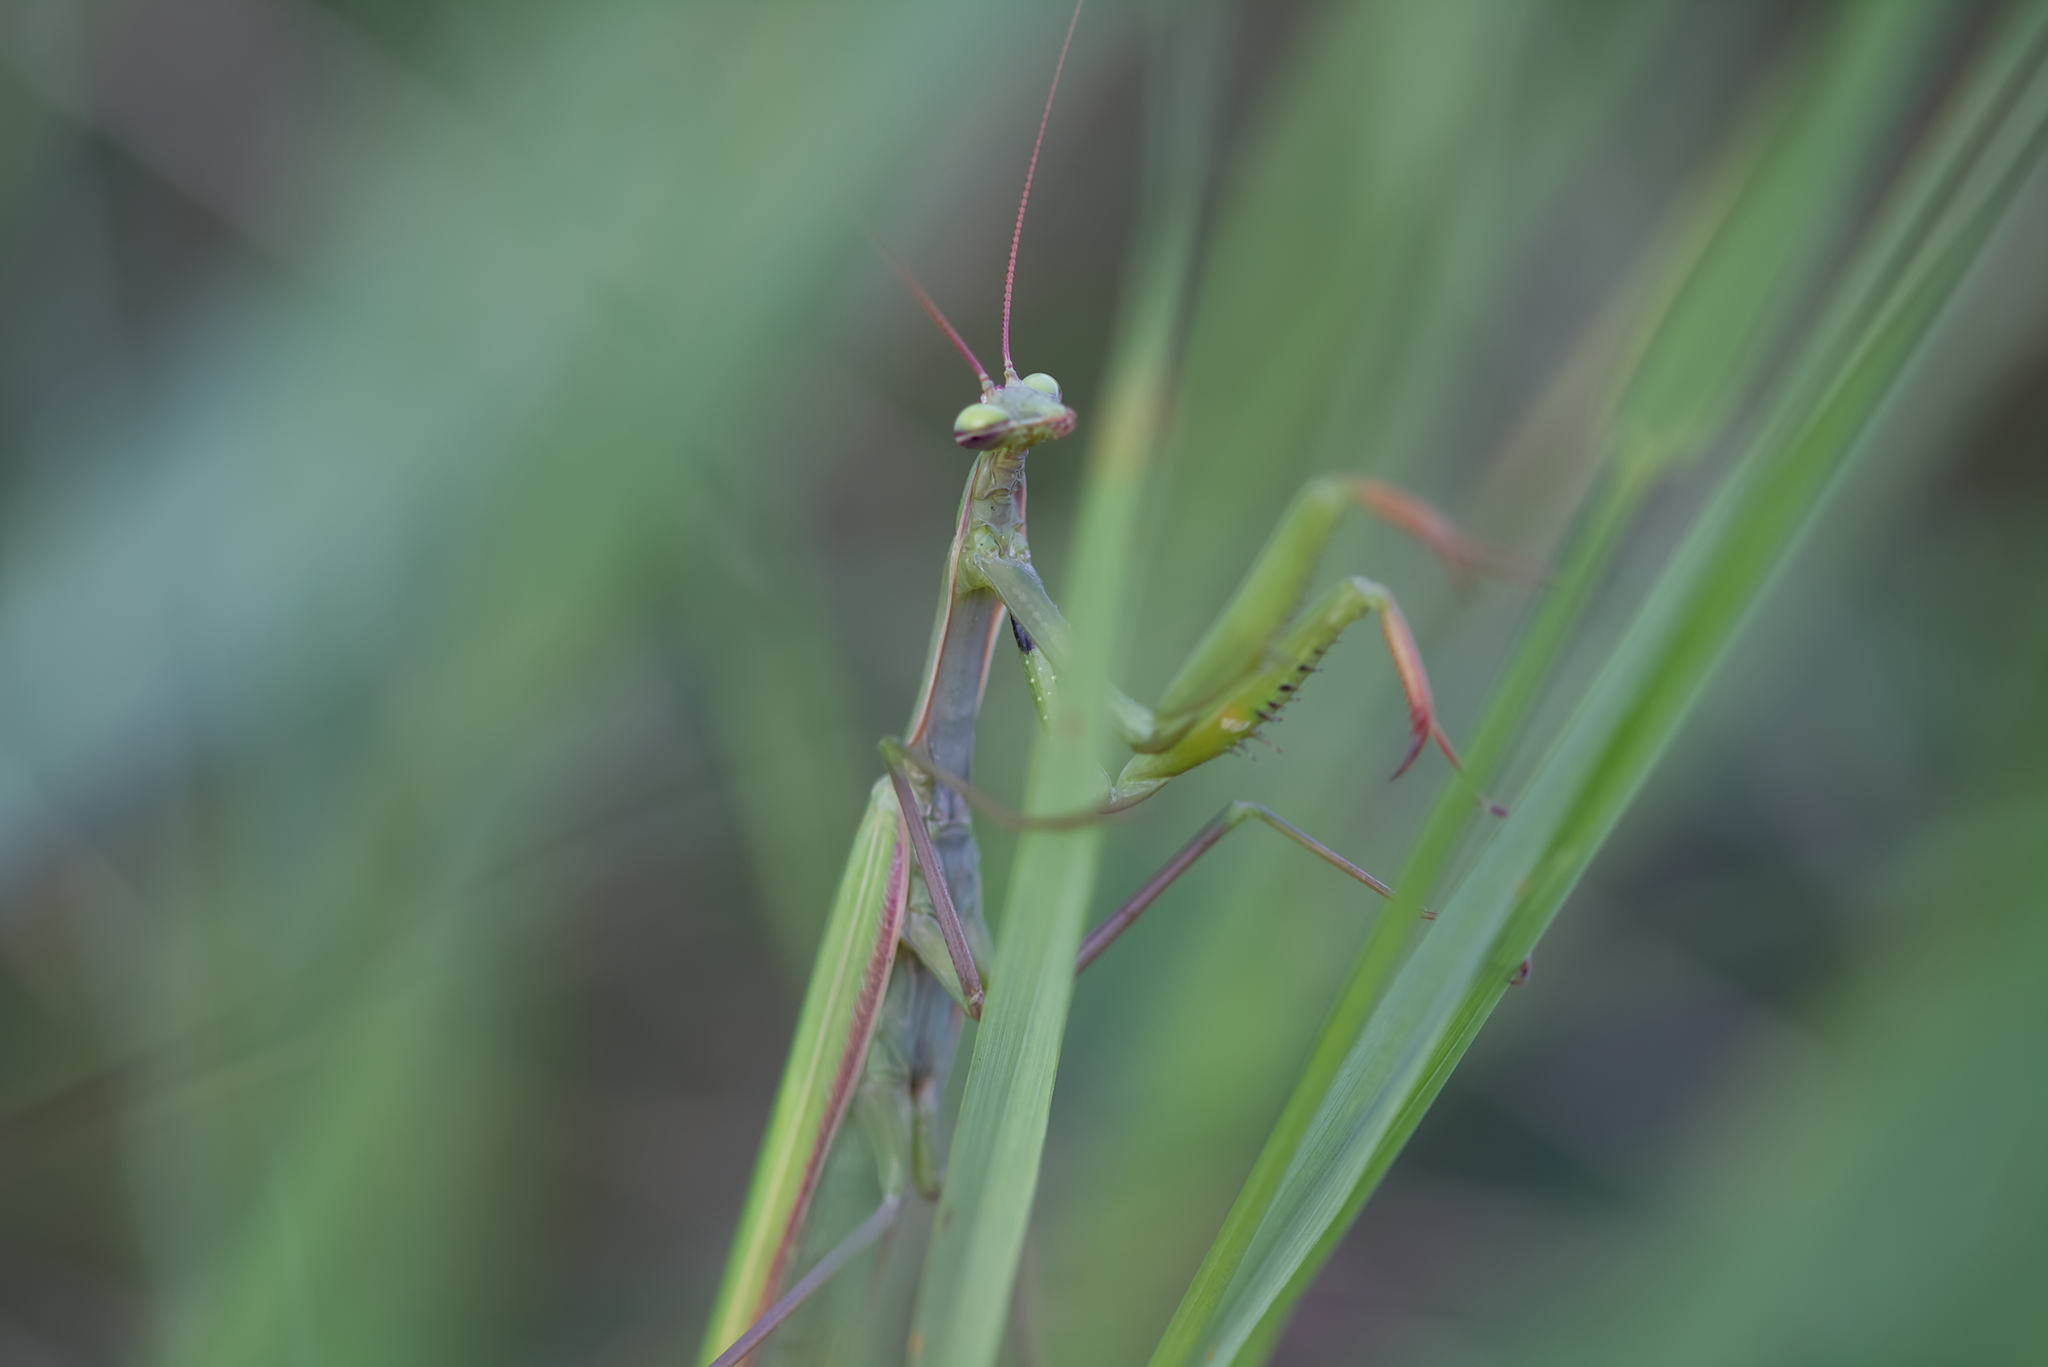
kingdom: Animalia
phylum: Arthropoda
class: Insecta
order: Mantodea
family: Mantidae
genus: Mantis
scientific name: Mantis religiosa
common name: Praying mantis
